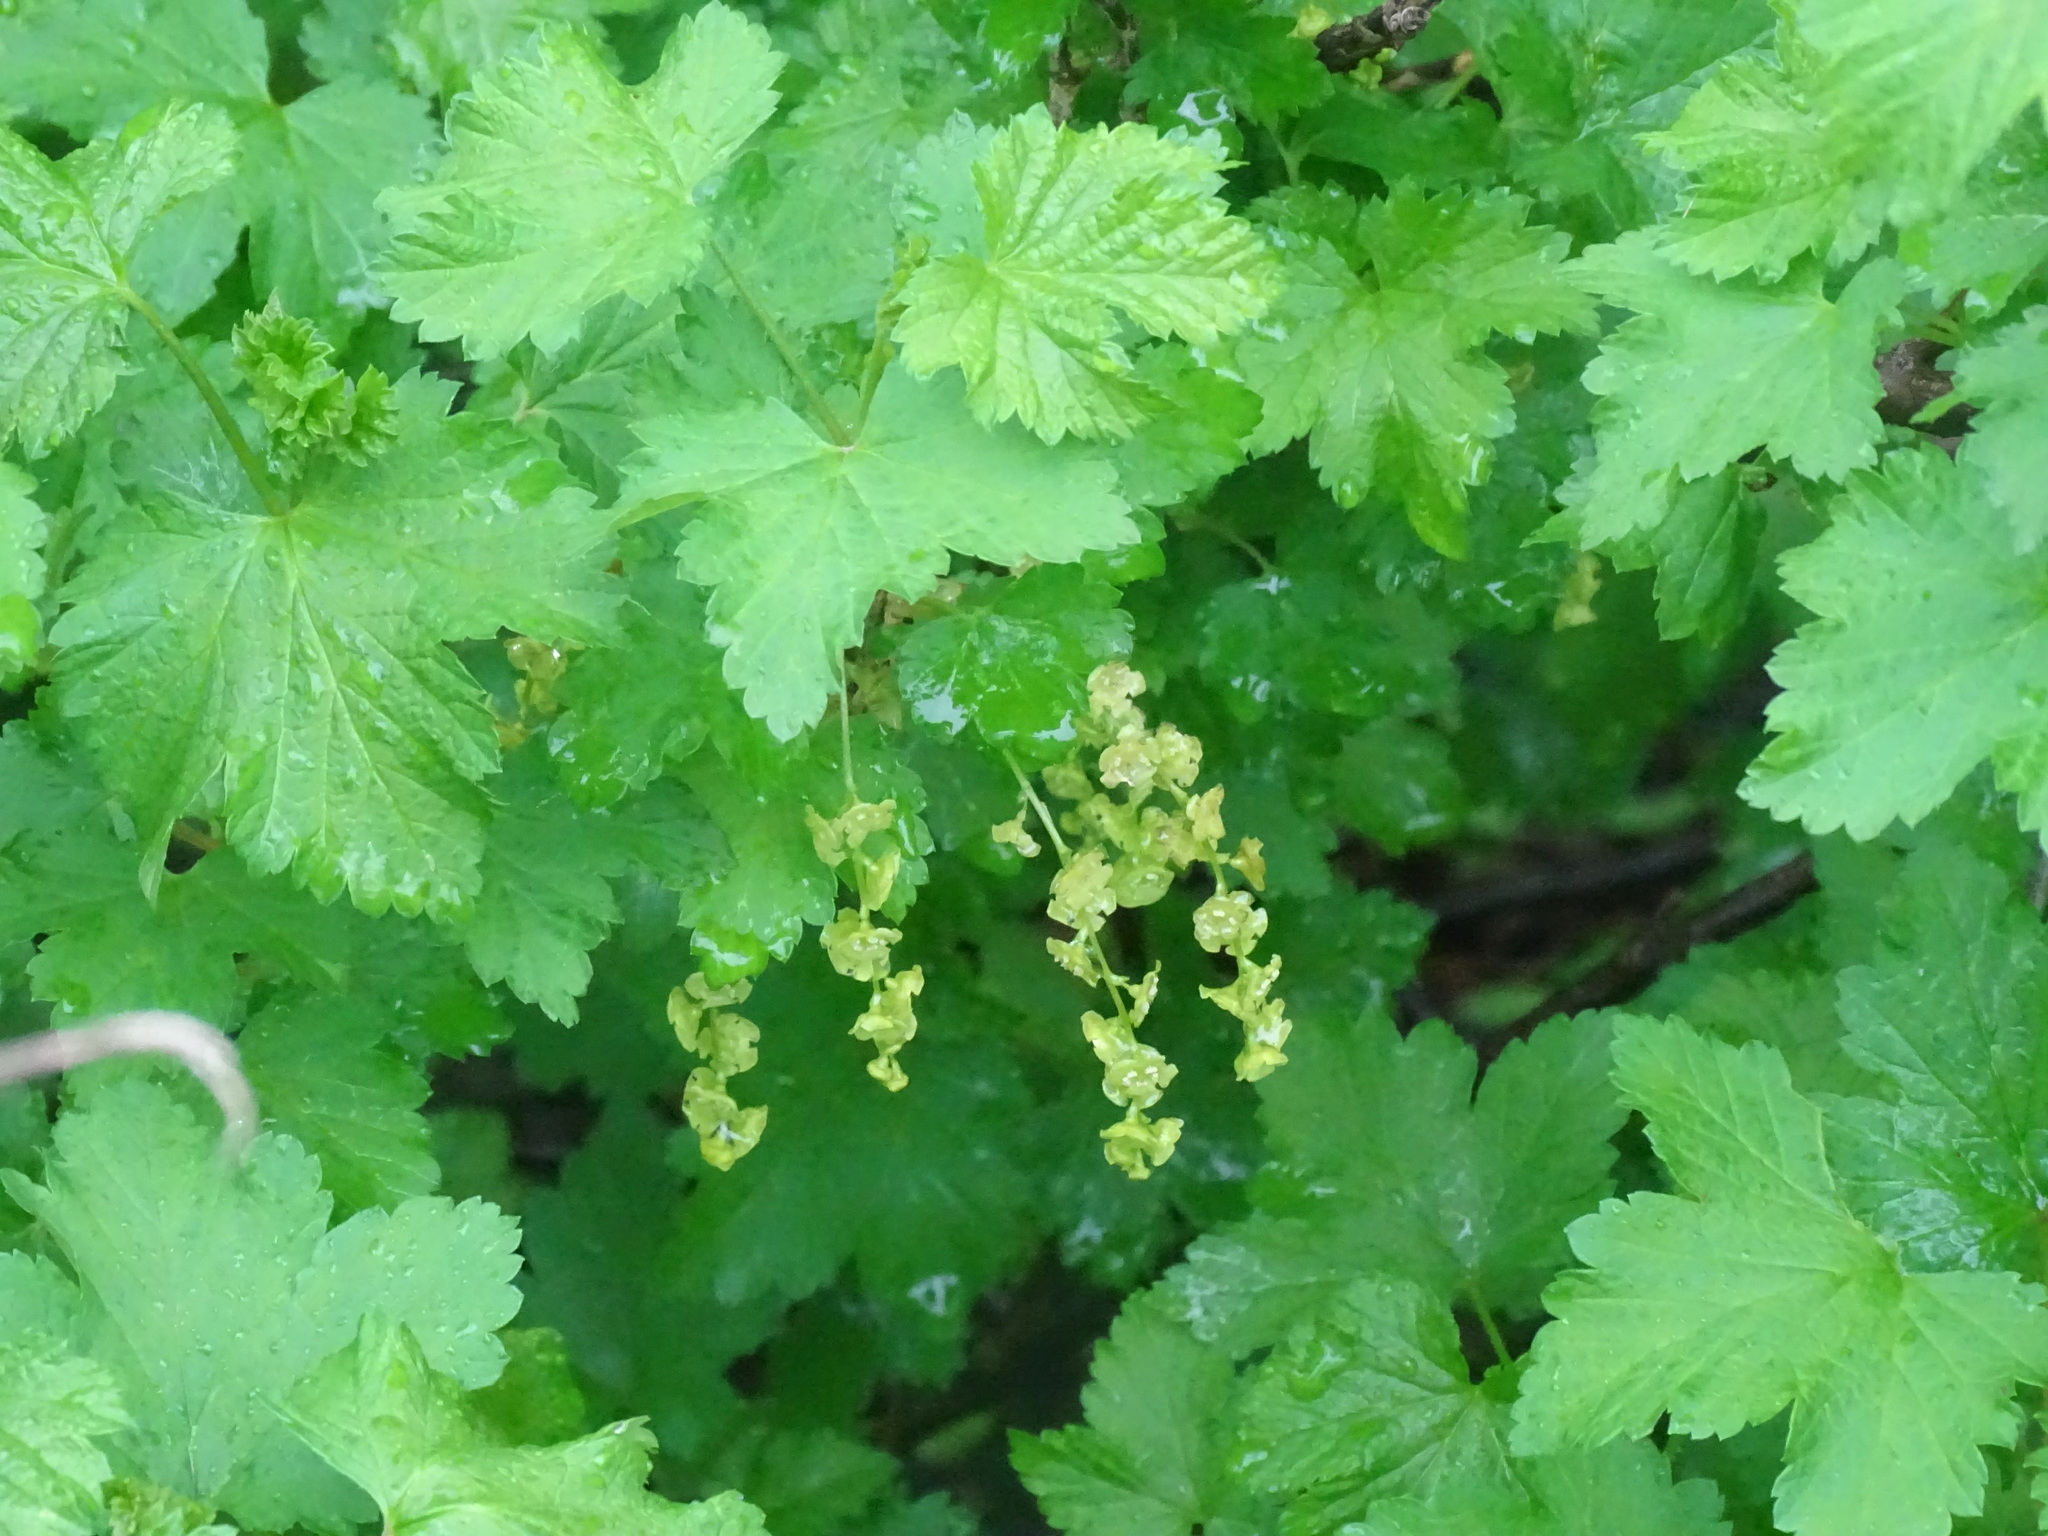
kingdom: Plantae
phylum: Tracheophyta
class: Magnoliopsida
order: Saxifragales
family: Grossulariaceae
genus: Ribes
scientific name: Ribes rubrum
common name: Red currant
